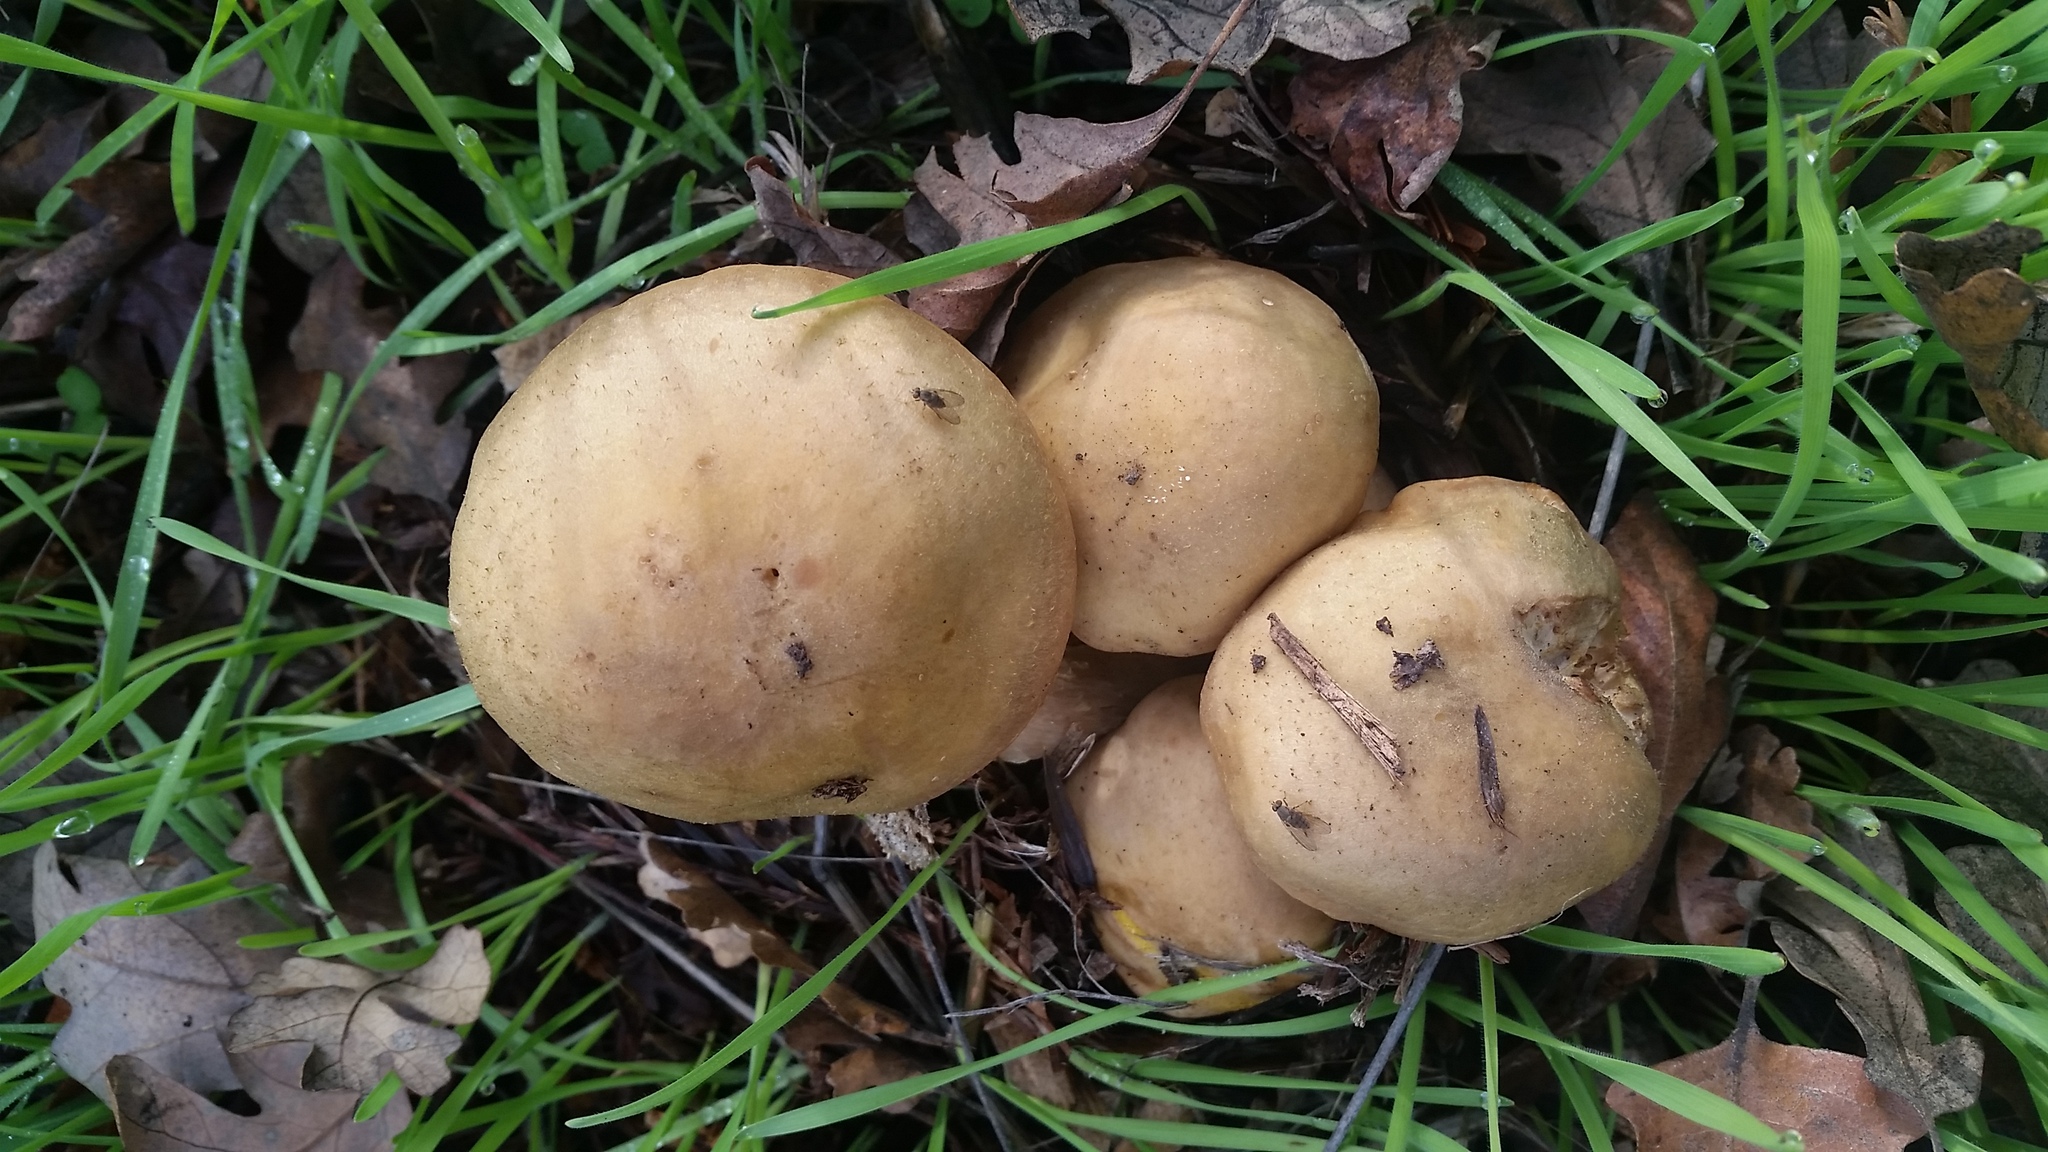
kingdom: Fungi
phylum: Basidiomycota
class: Agaricomycetes
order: Agaricales
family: Physalacriaceae
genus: Armillaria
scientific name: Armillaria mellea
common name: Honey fungus
